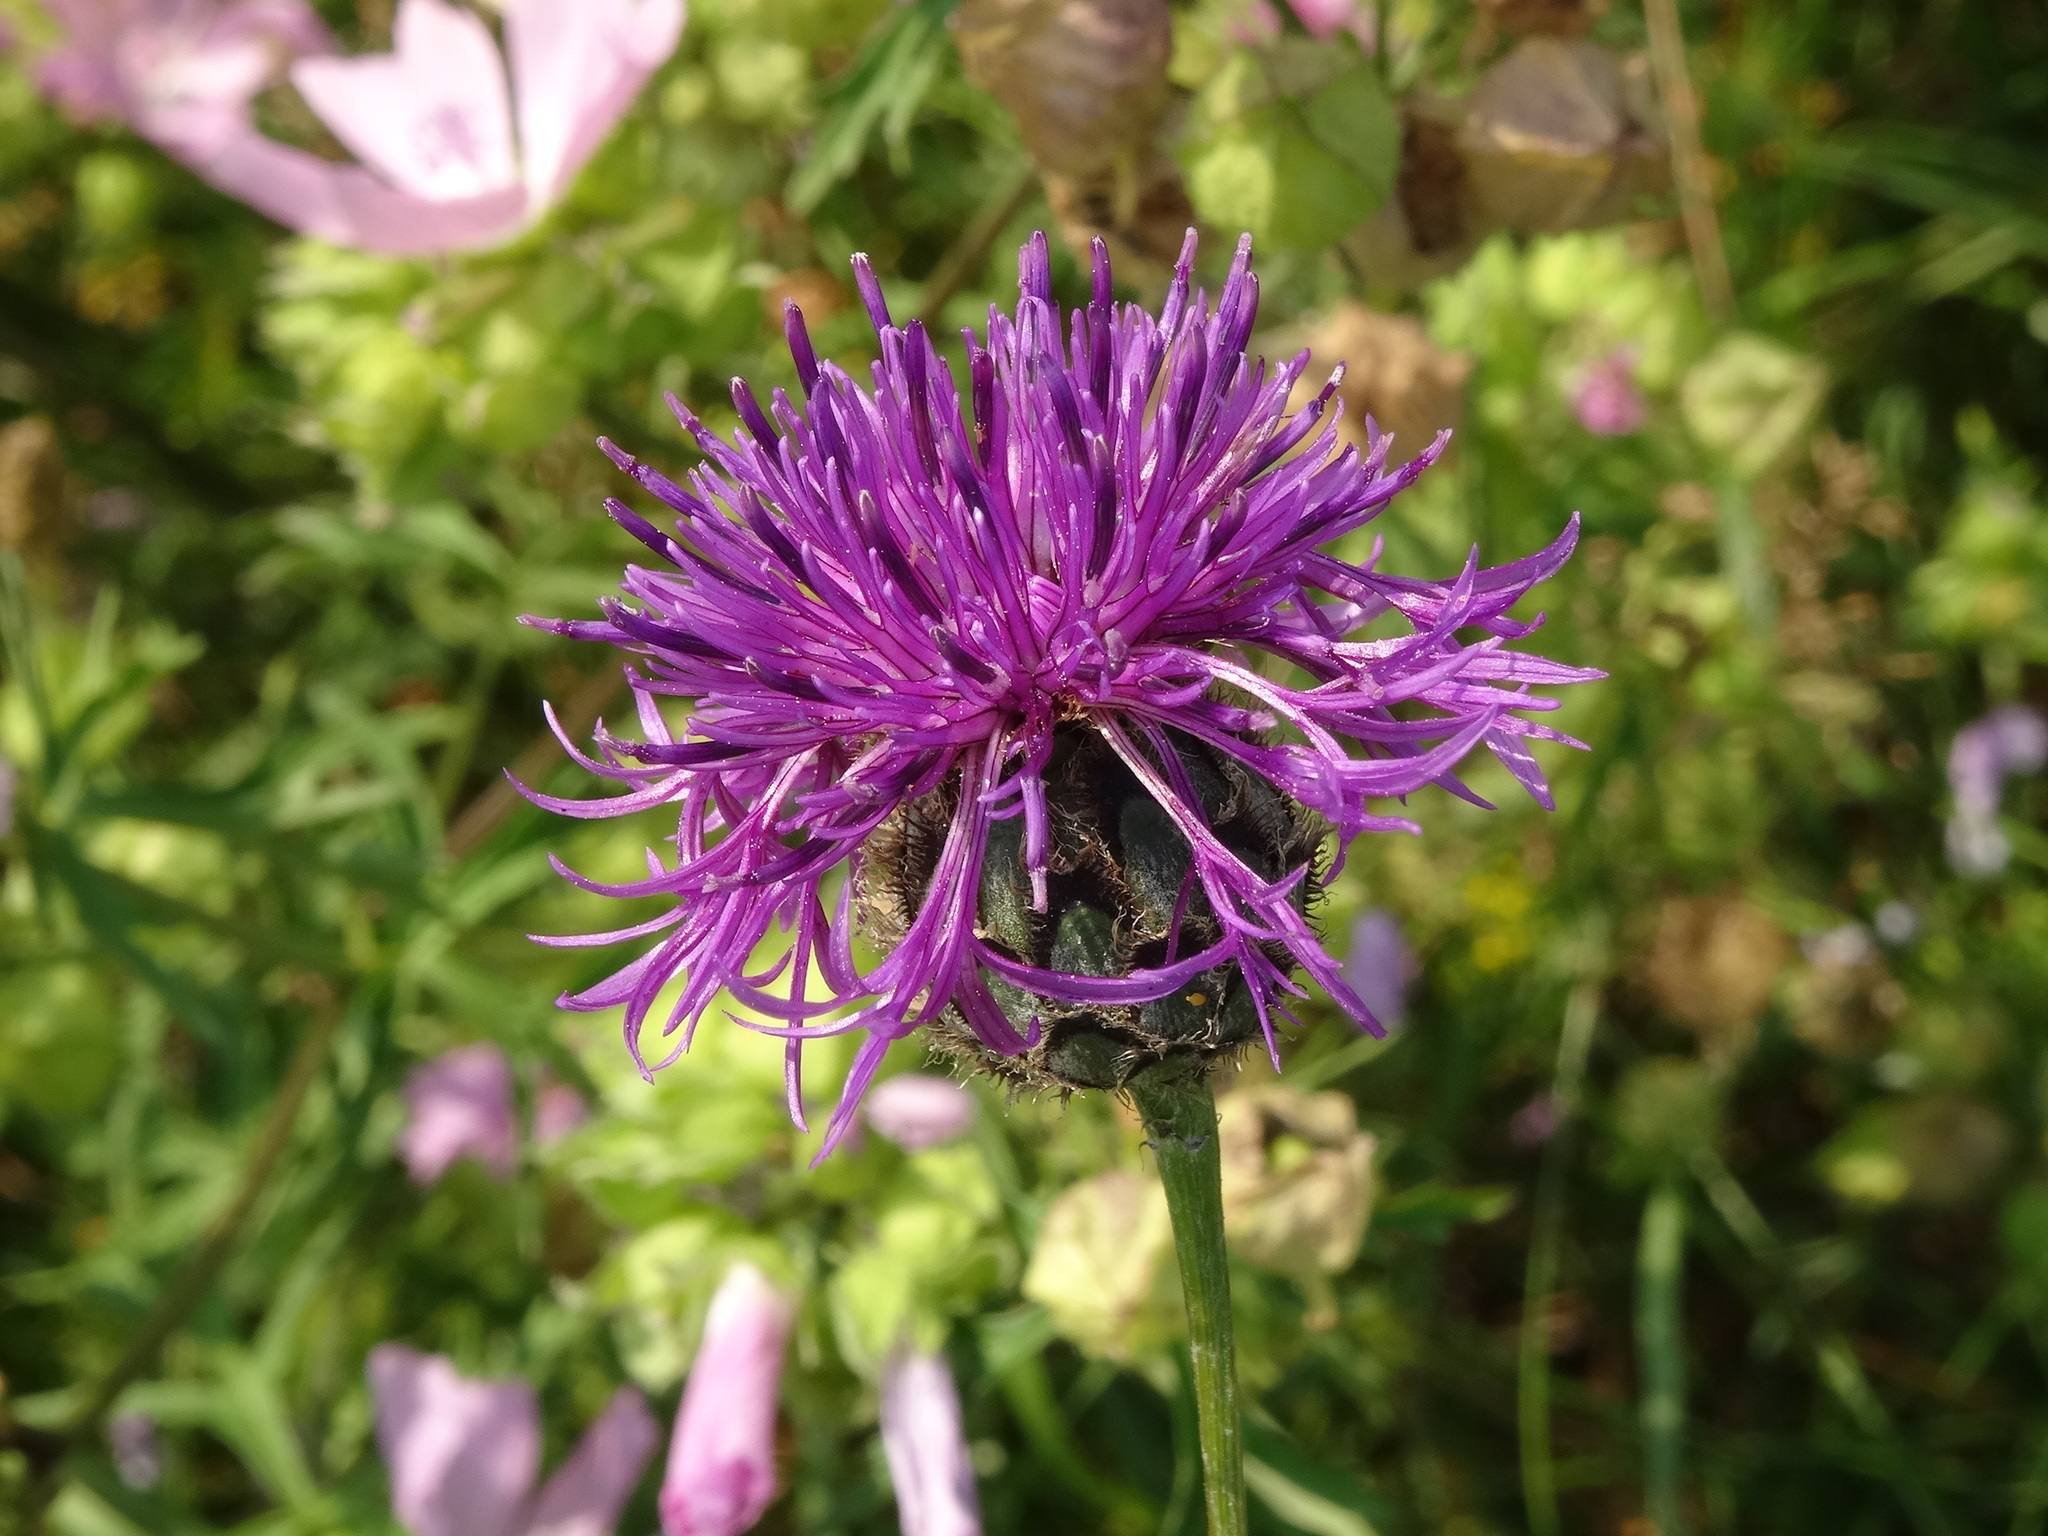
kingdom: Plantae
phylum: Tracheophyta
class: Magnoliopsida
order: Asterales
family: Asteraceae
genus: Centaurea
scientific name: Centaurea scabiosa
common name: Greater knapweed
